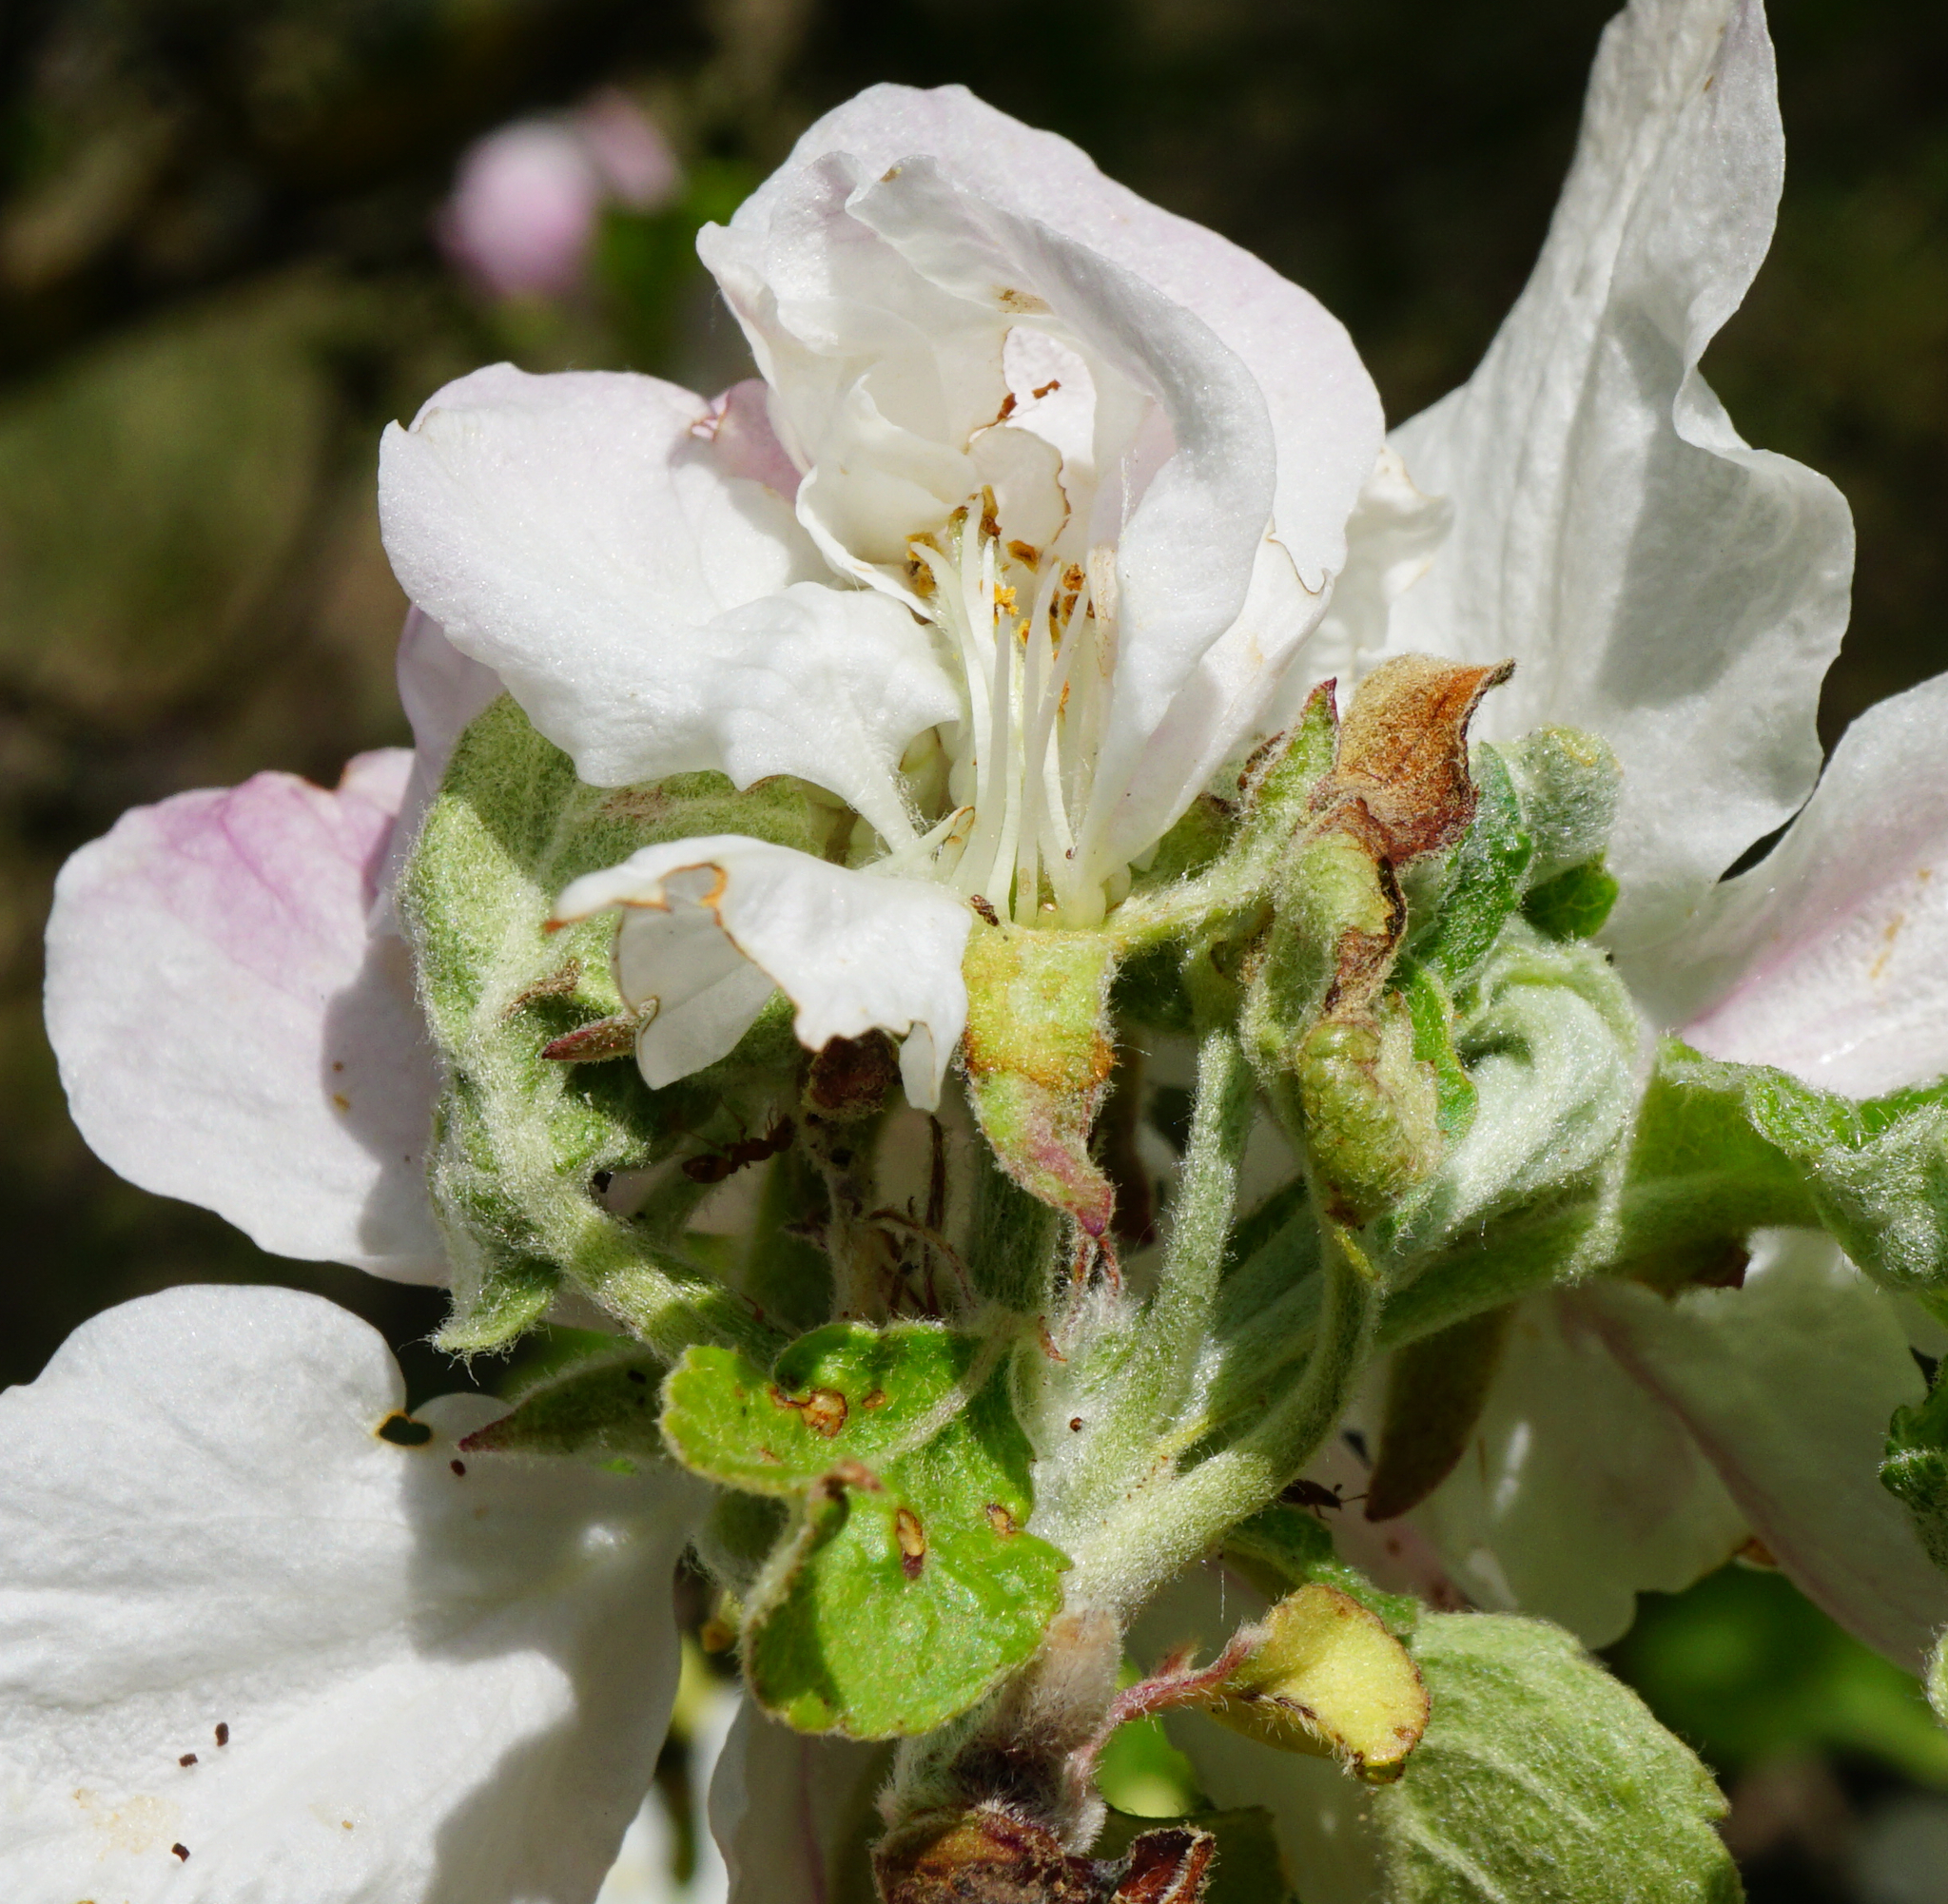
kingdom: Plantae
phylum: Tracheophyta
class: Magnoliopsida
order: Rosales
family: Rosaceae
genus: Malus
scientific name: Malus domestica
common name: Apple
